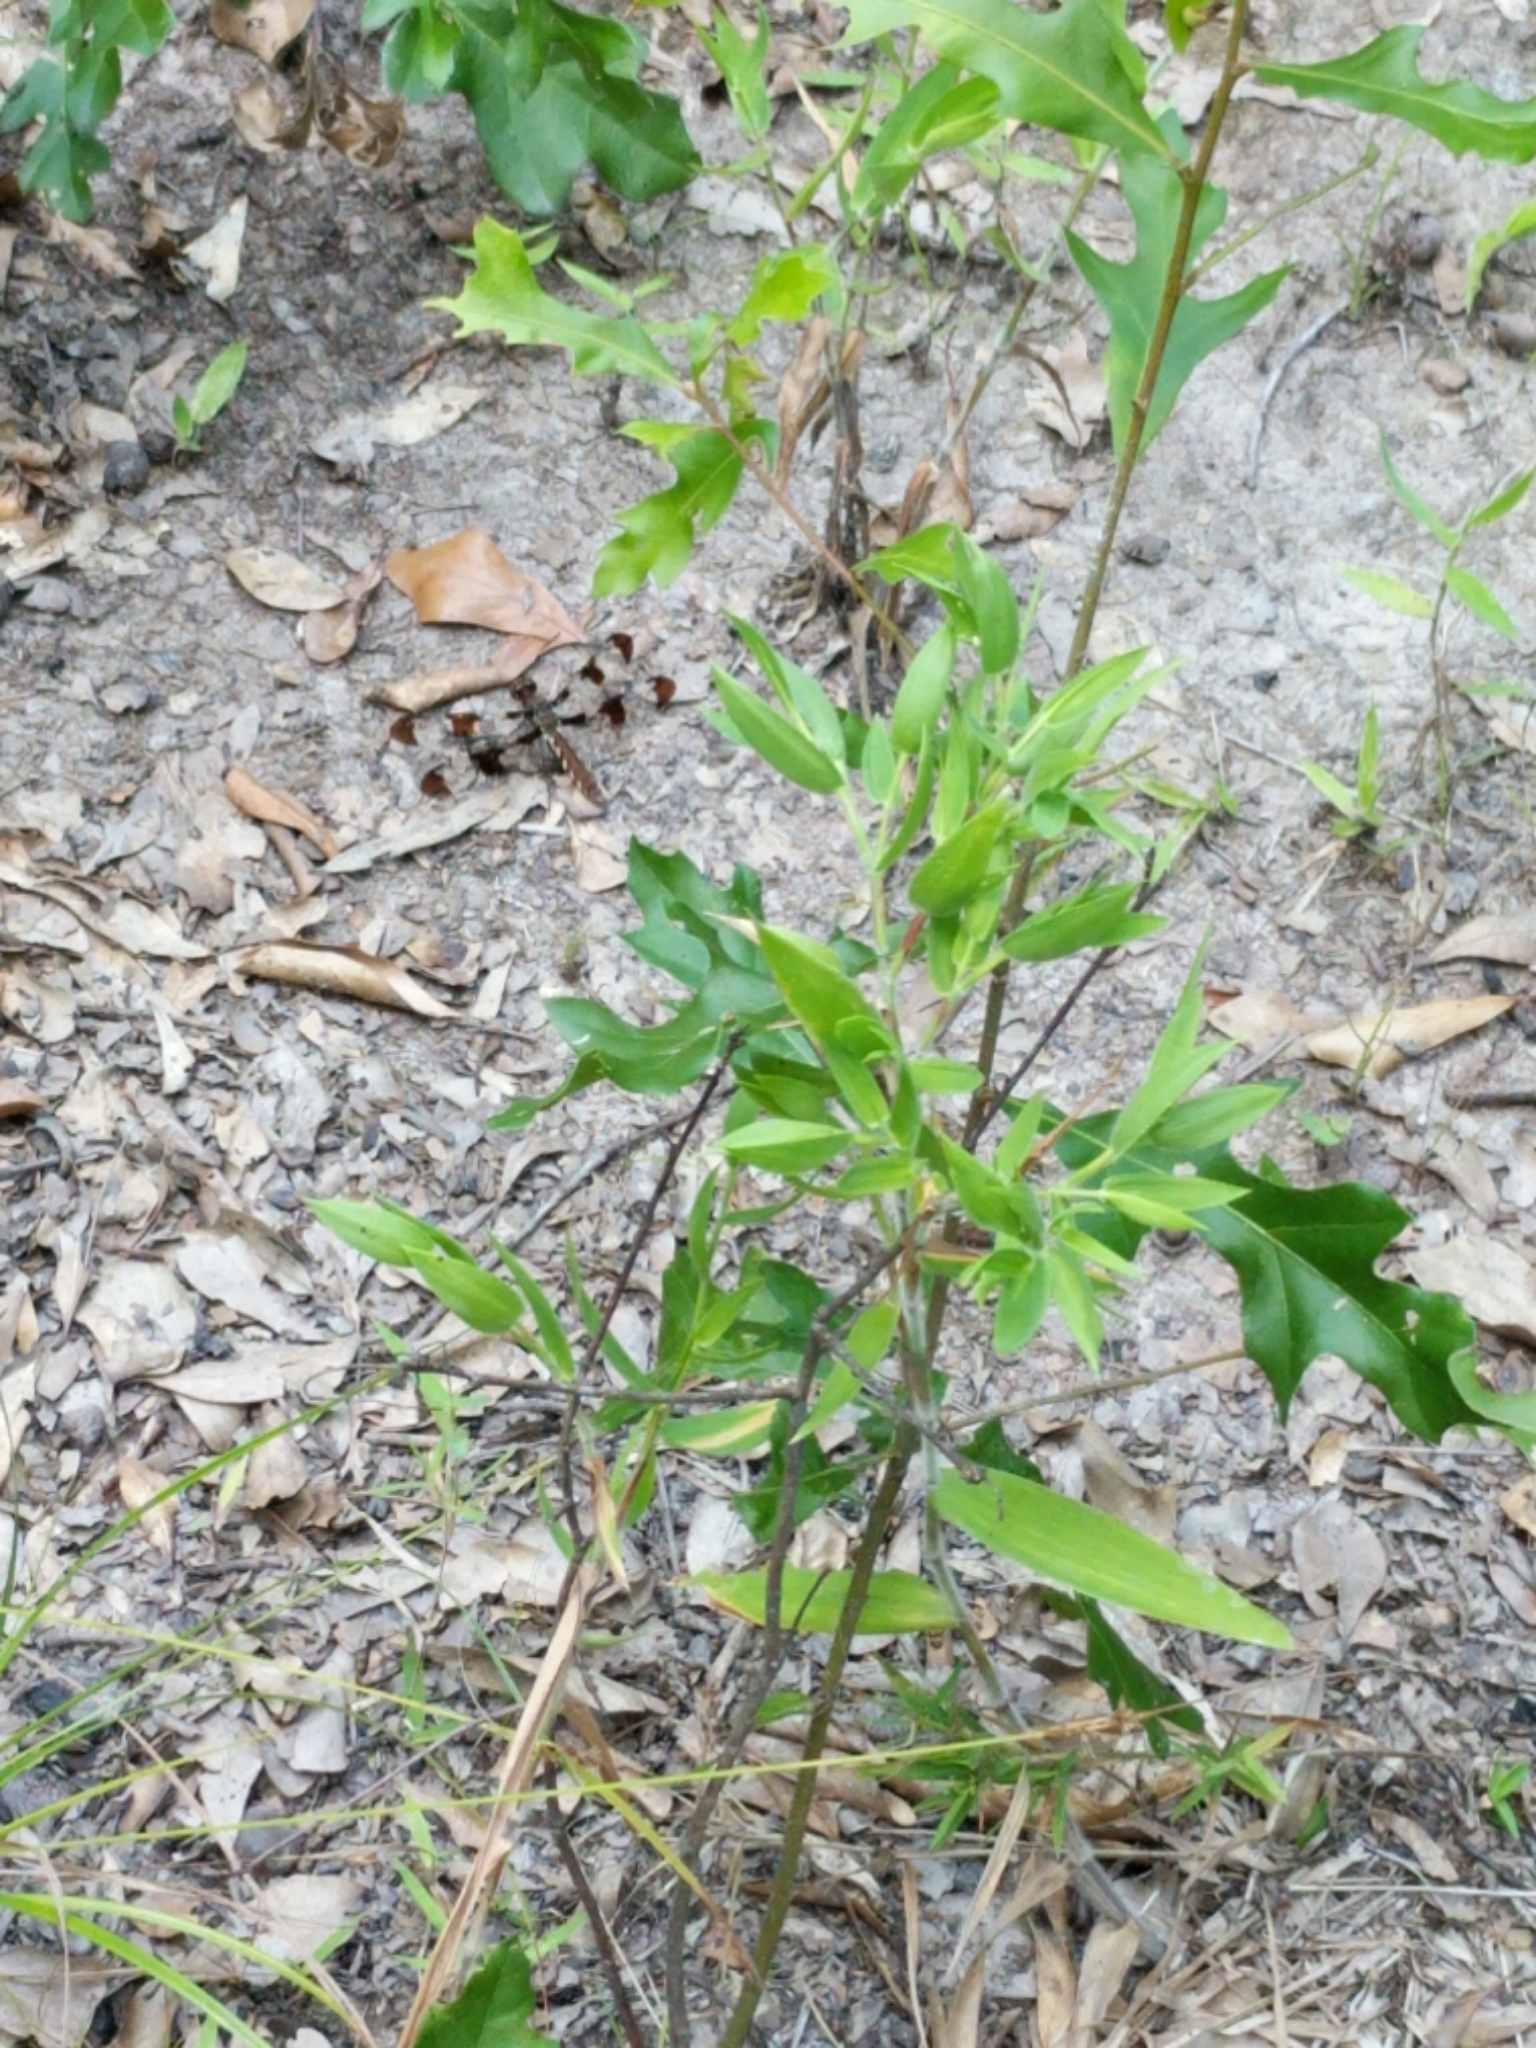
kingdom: Animalia
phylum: Arthropoda
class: Insecta
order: Odonata
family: Libellulidae
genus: Plathemis
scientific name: Plathemis lydia
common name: Common whitetail
